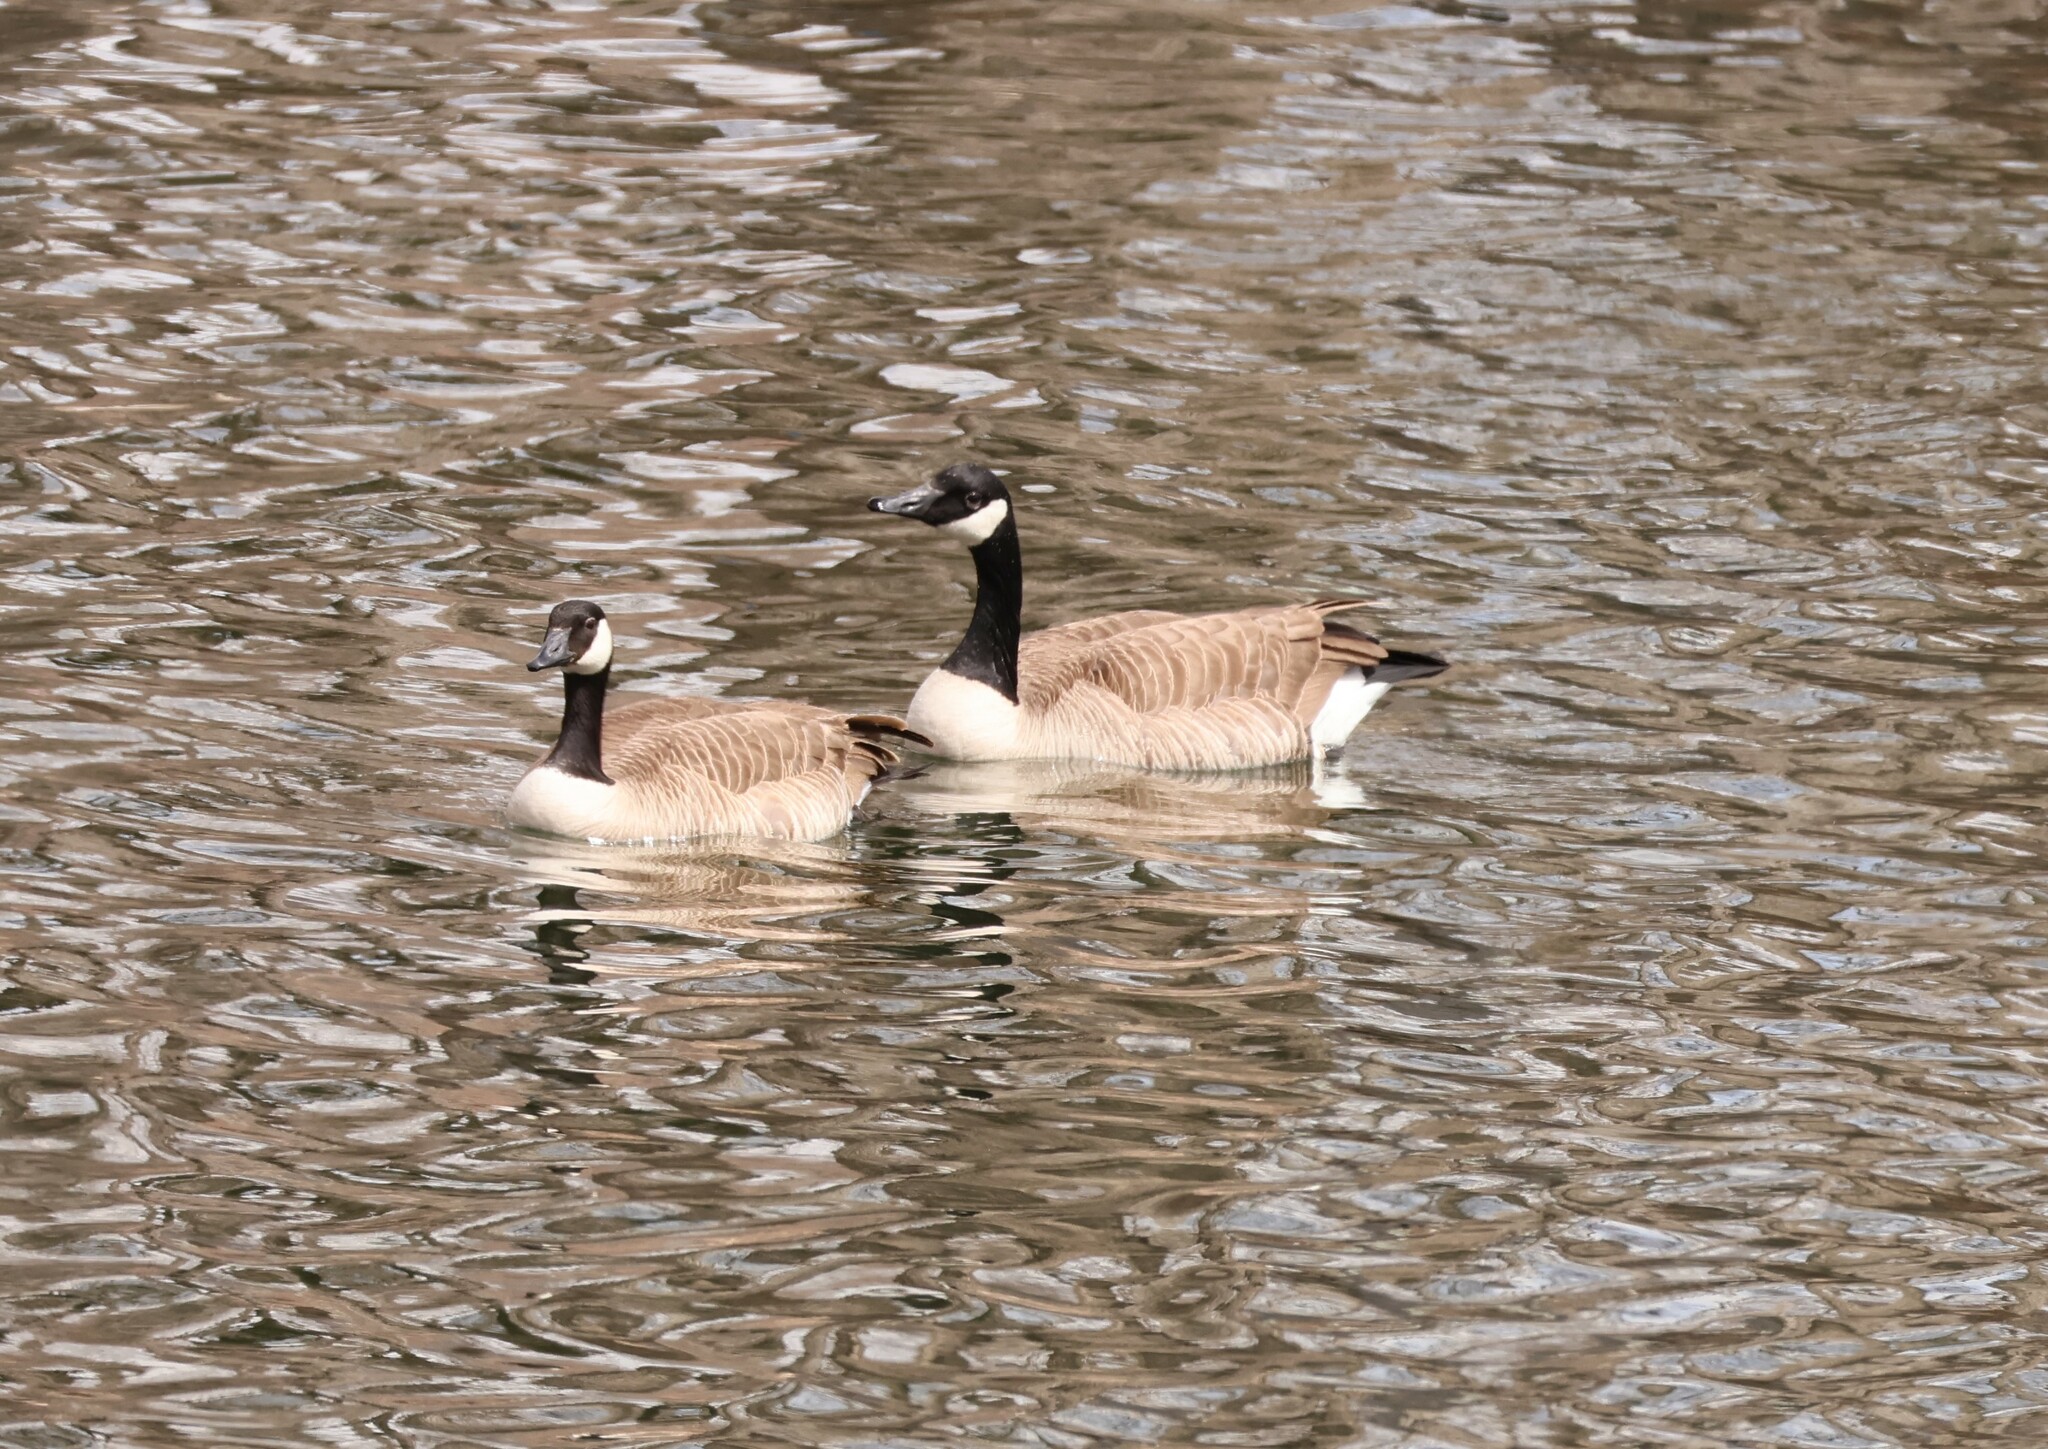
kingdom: Animalia
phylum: Chordata
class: Aves
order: Anseriformes
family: Anatidae
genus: Branta
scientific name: Branta canadensis
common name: Canada goose
